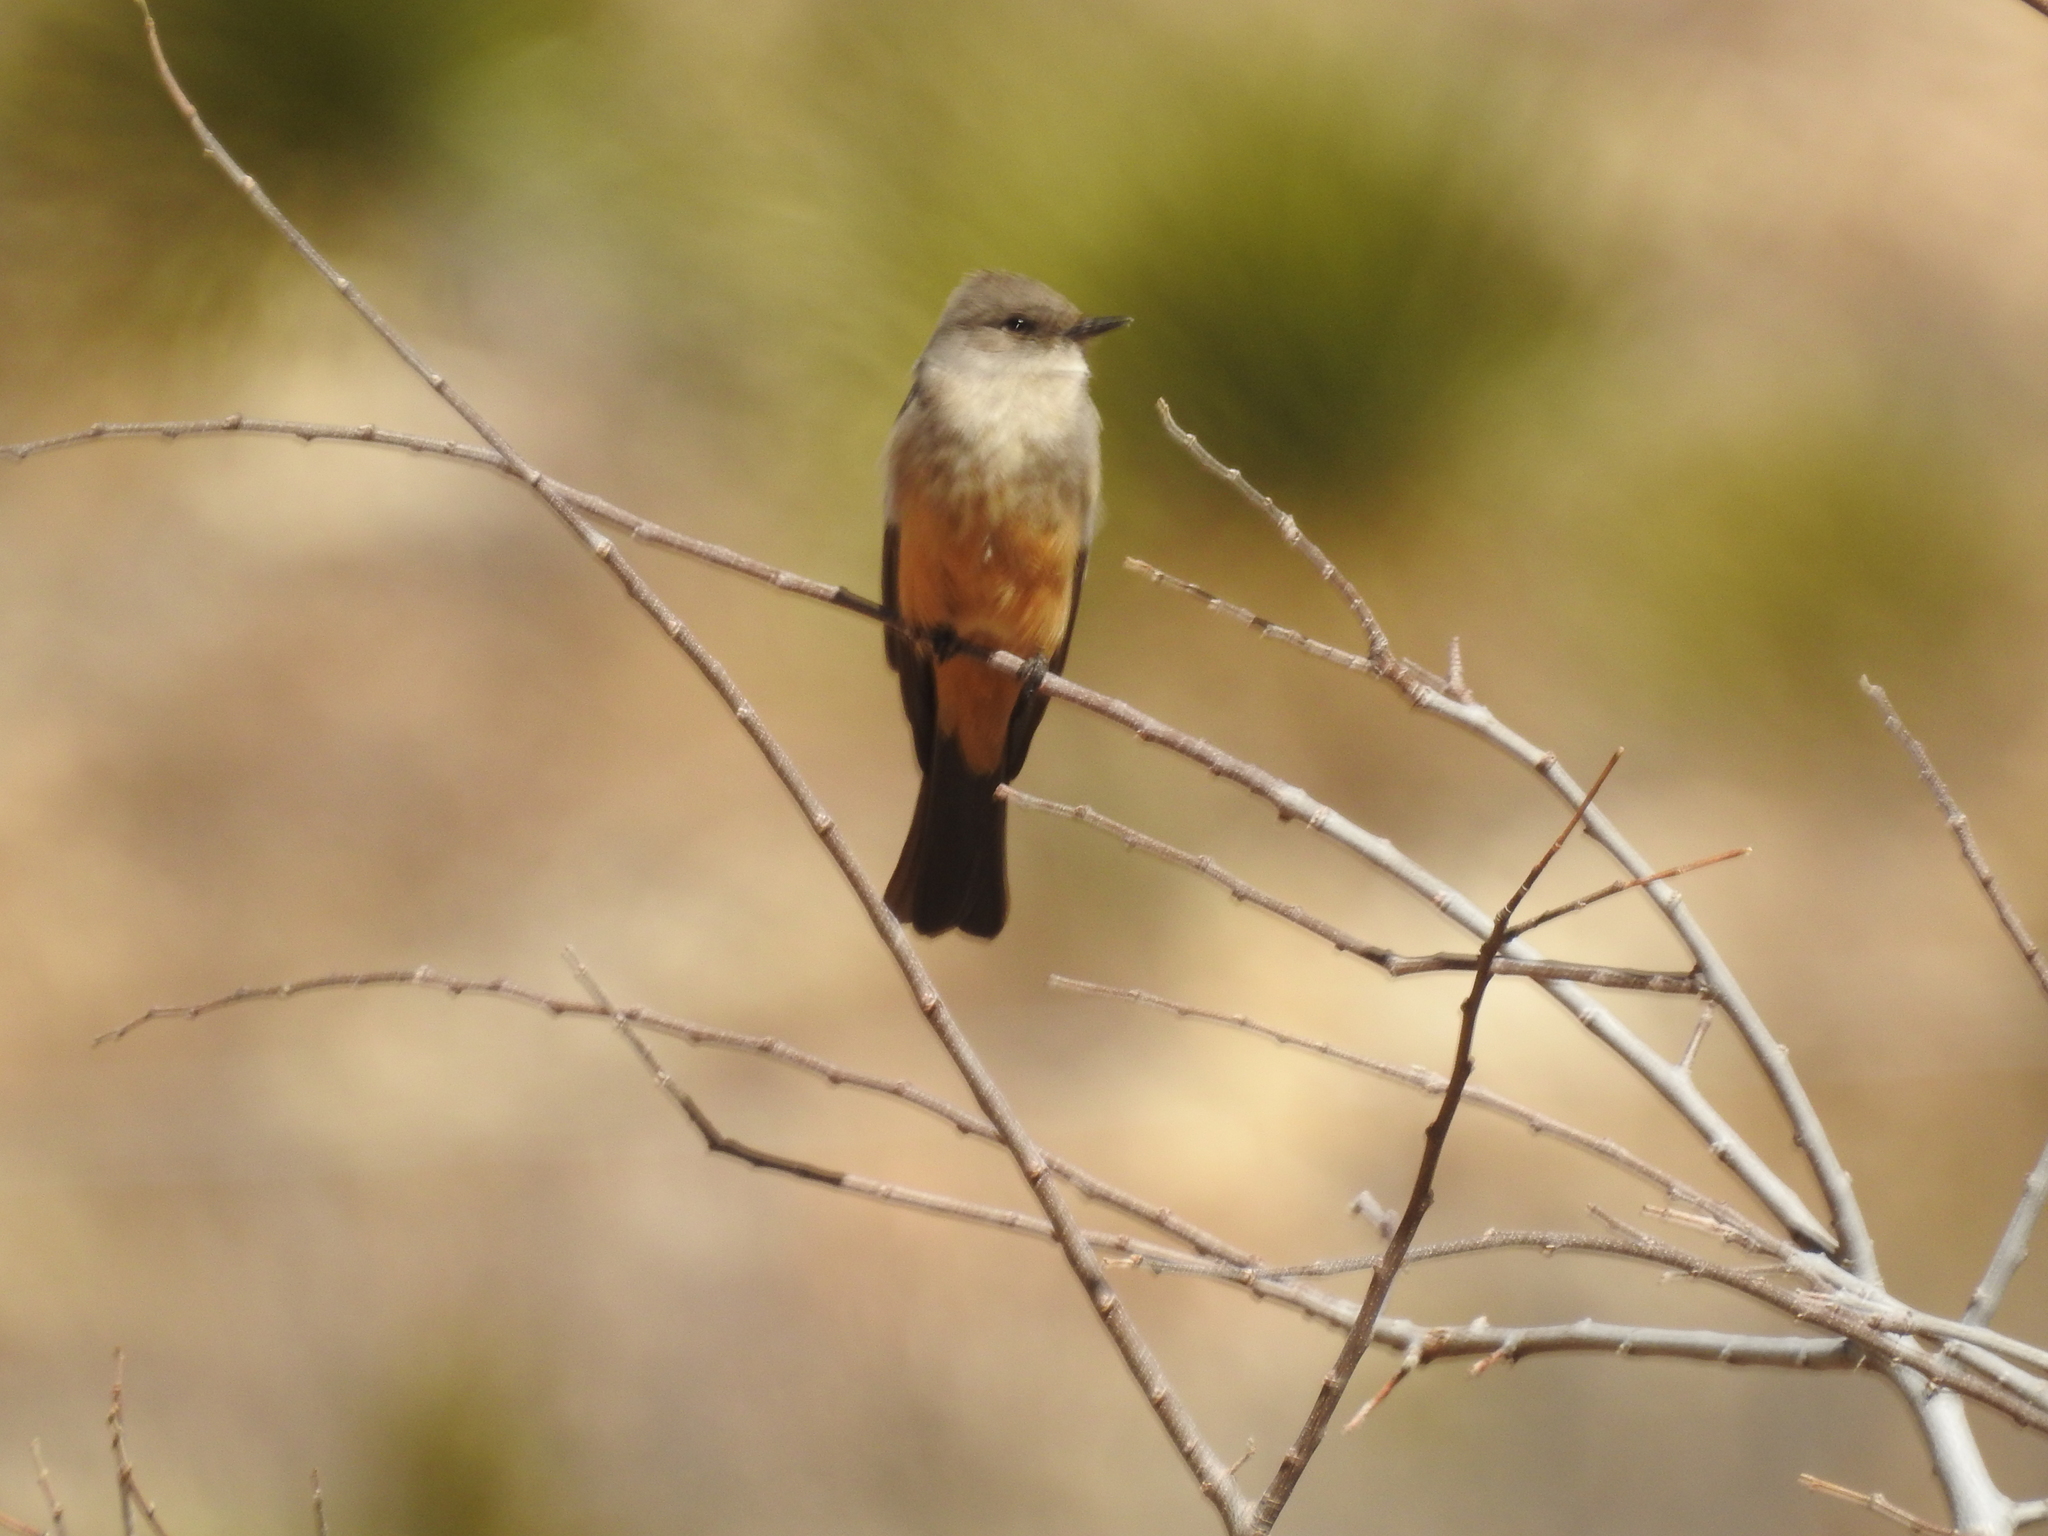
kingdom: Animalia
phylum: Chordata
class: Aves
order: Passeriformes
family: Tyrannidae
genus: Sayornis
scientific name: Sayornis saya
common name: Say's phoebe
